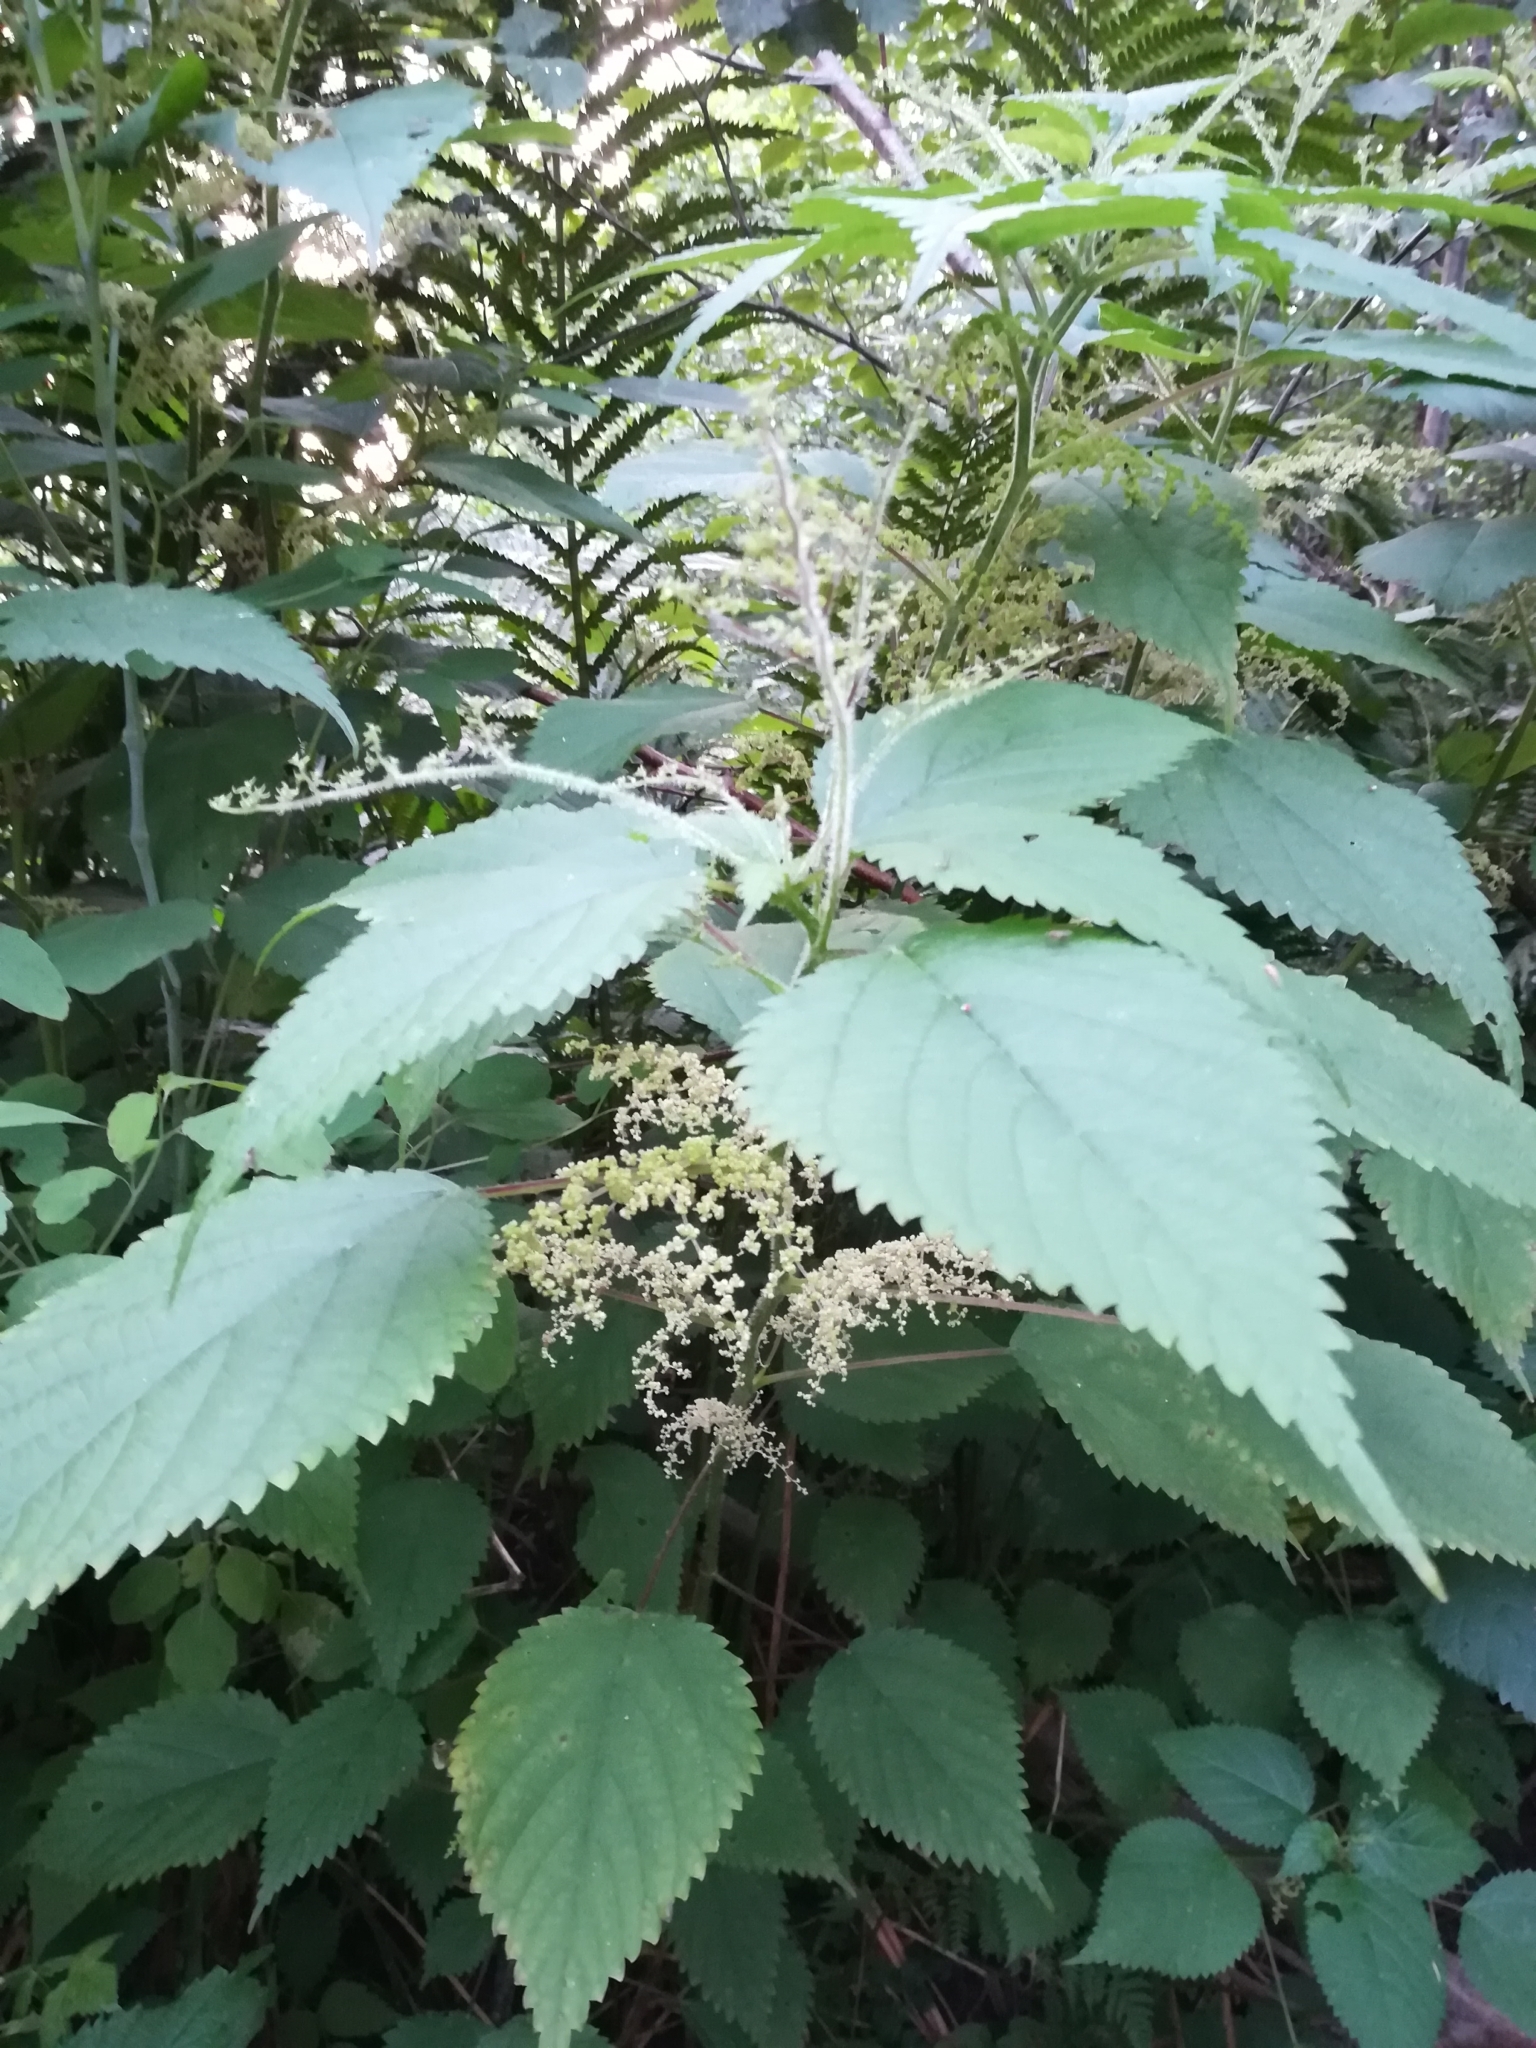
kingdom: Plantae
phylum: Tracheophyta
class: Magnoliopsida
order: Rosales
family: Urticaceae
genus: Laportea
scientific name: Laportea canadensis
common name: Canada nettle
